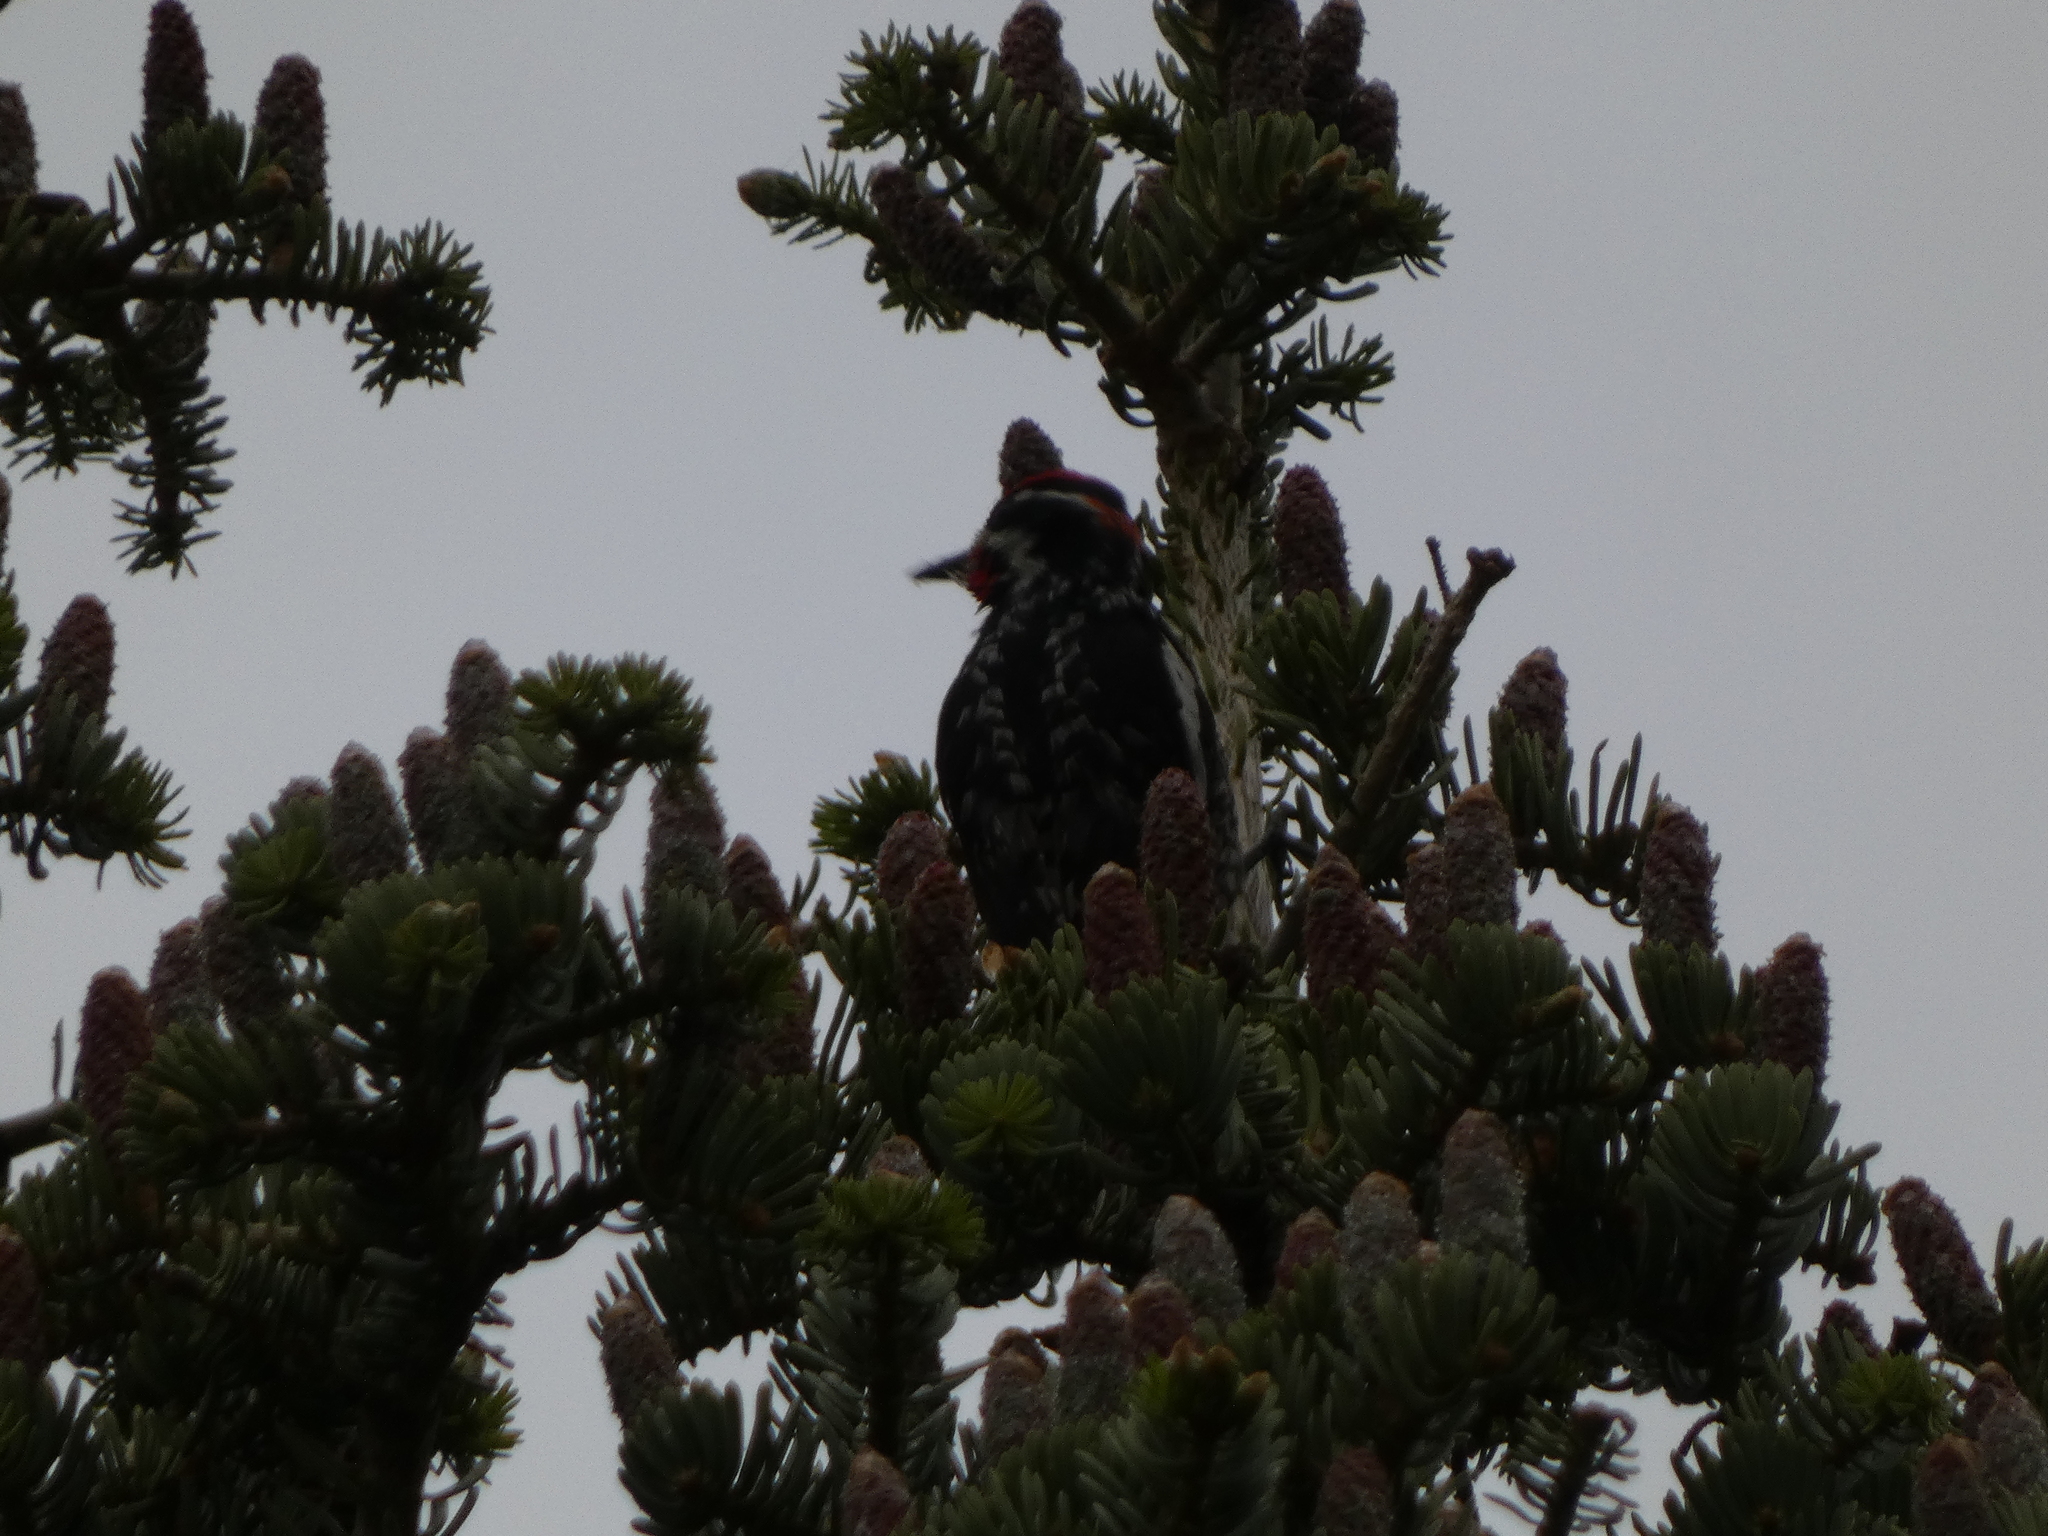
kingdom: Animalia
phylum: Chordata
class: Aves
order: Piciformes
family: Picidae
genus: Sphyrapicus
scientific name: Sphyrapicus nuchalis
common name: Red-naped sapsucker
